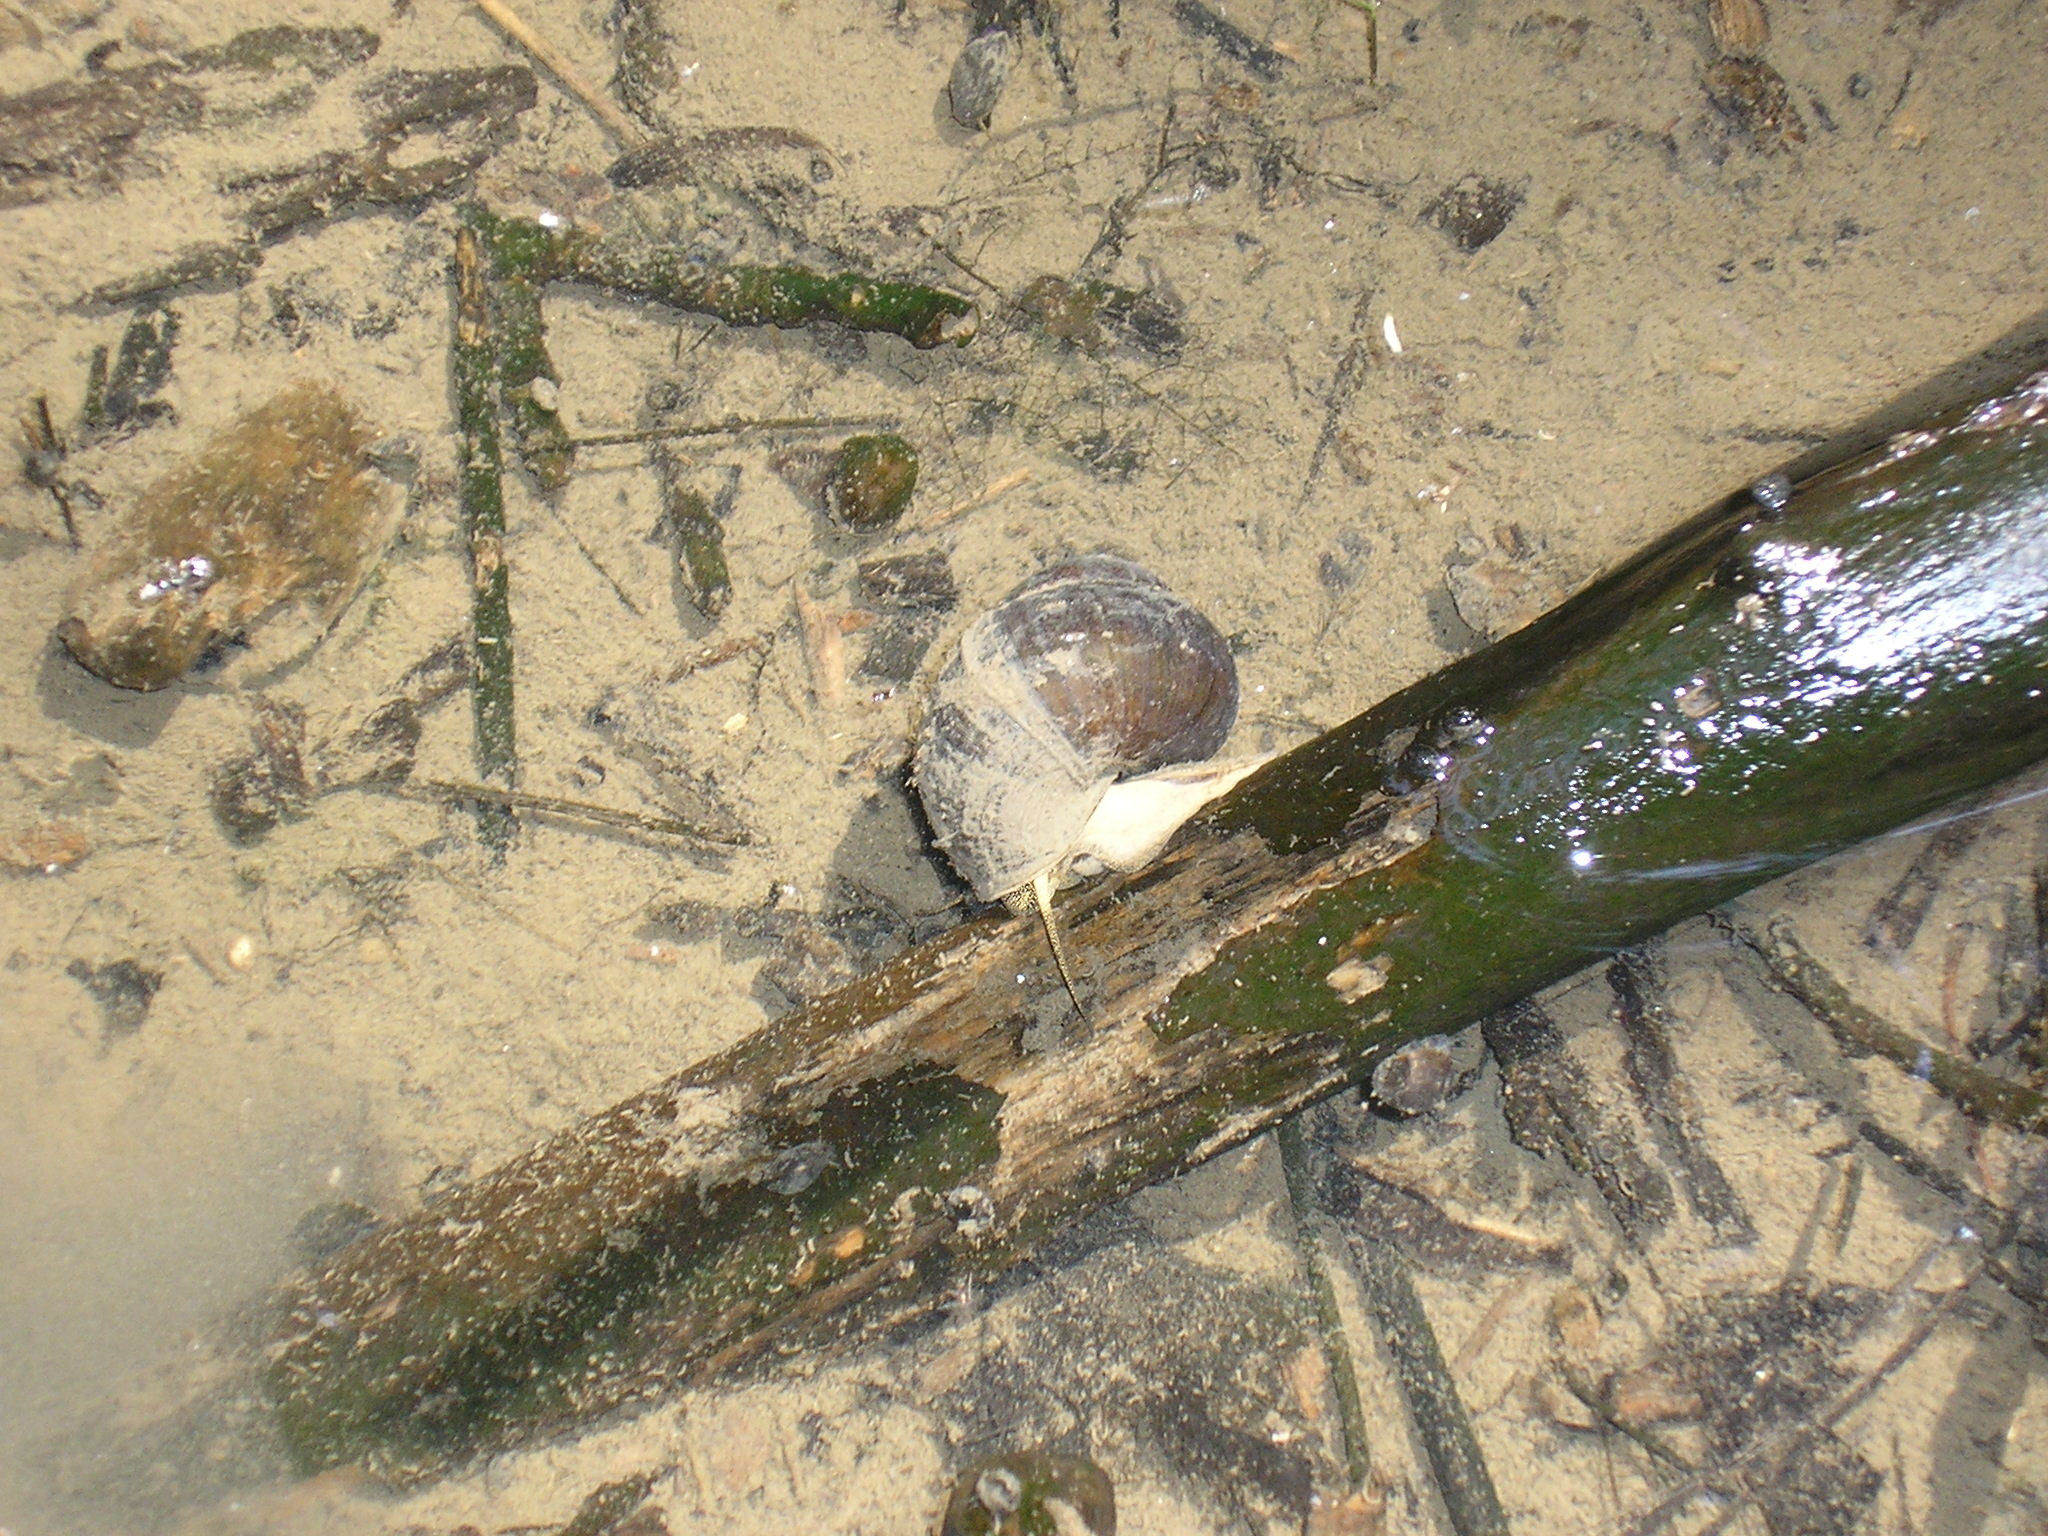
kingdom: Animalia
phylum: Mollusca
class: Gastropoda
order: Architaenioglossa
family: Viviparidae
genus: Cipangopaludina
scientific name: Cipangopaludina chinensis
